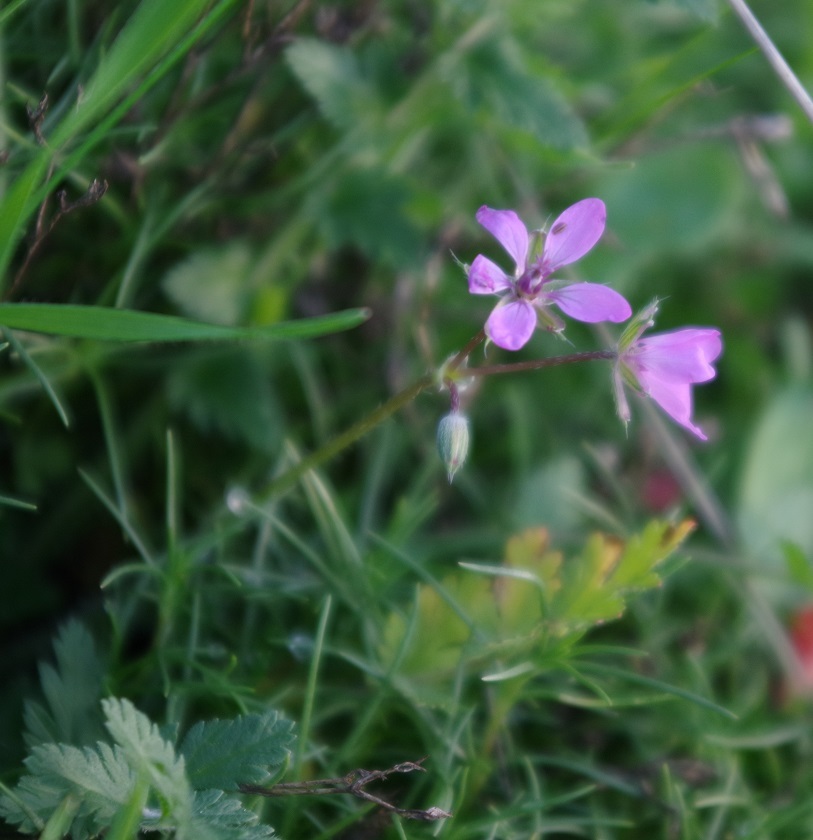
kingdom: Plantae
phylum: Tracheophyta
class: Magnoliopsida
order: Geraniales
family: Geraniaceae
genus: Erodium
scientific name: Erodium cicutarium
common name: Common stork's-bill
